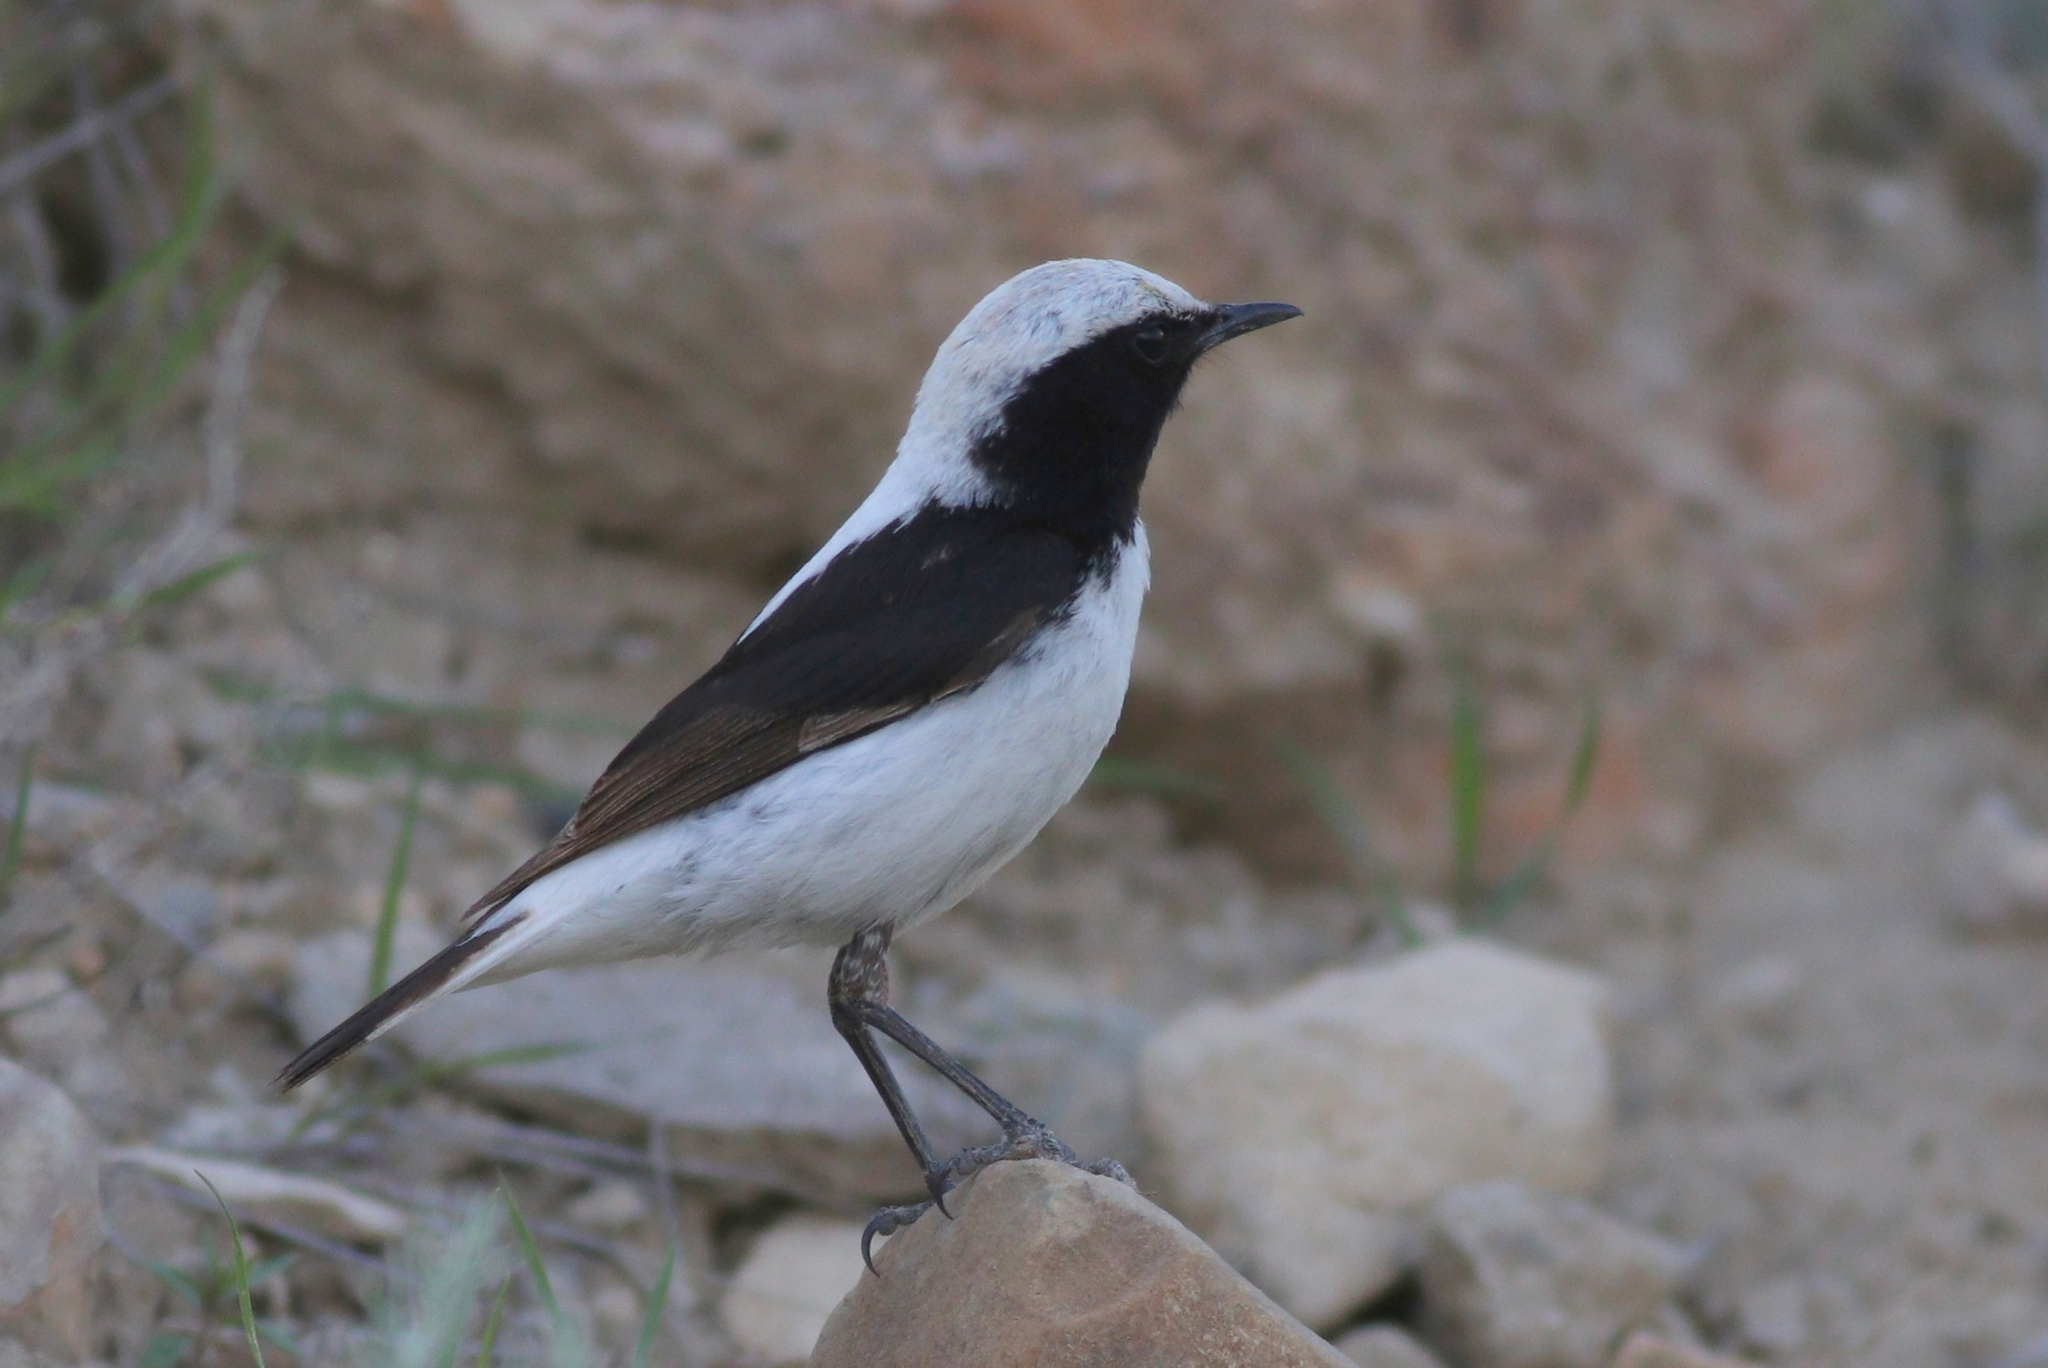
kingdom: Animalia
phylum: Chordata
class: Aves
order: Passeriformes
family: Muscicapidae
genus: Oenanthe
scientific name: Oenanthe finschii
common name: Finsch's wheatear
